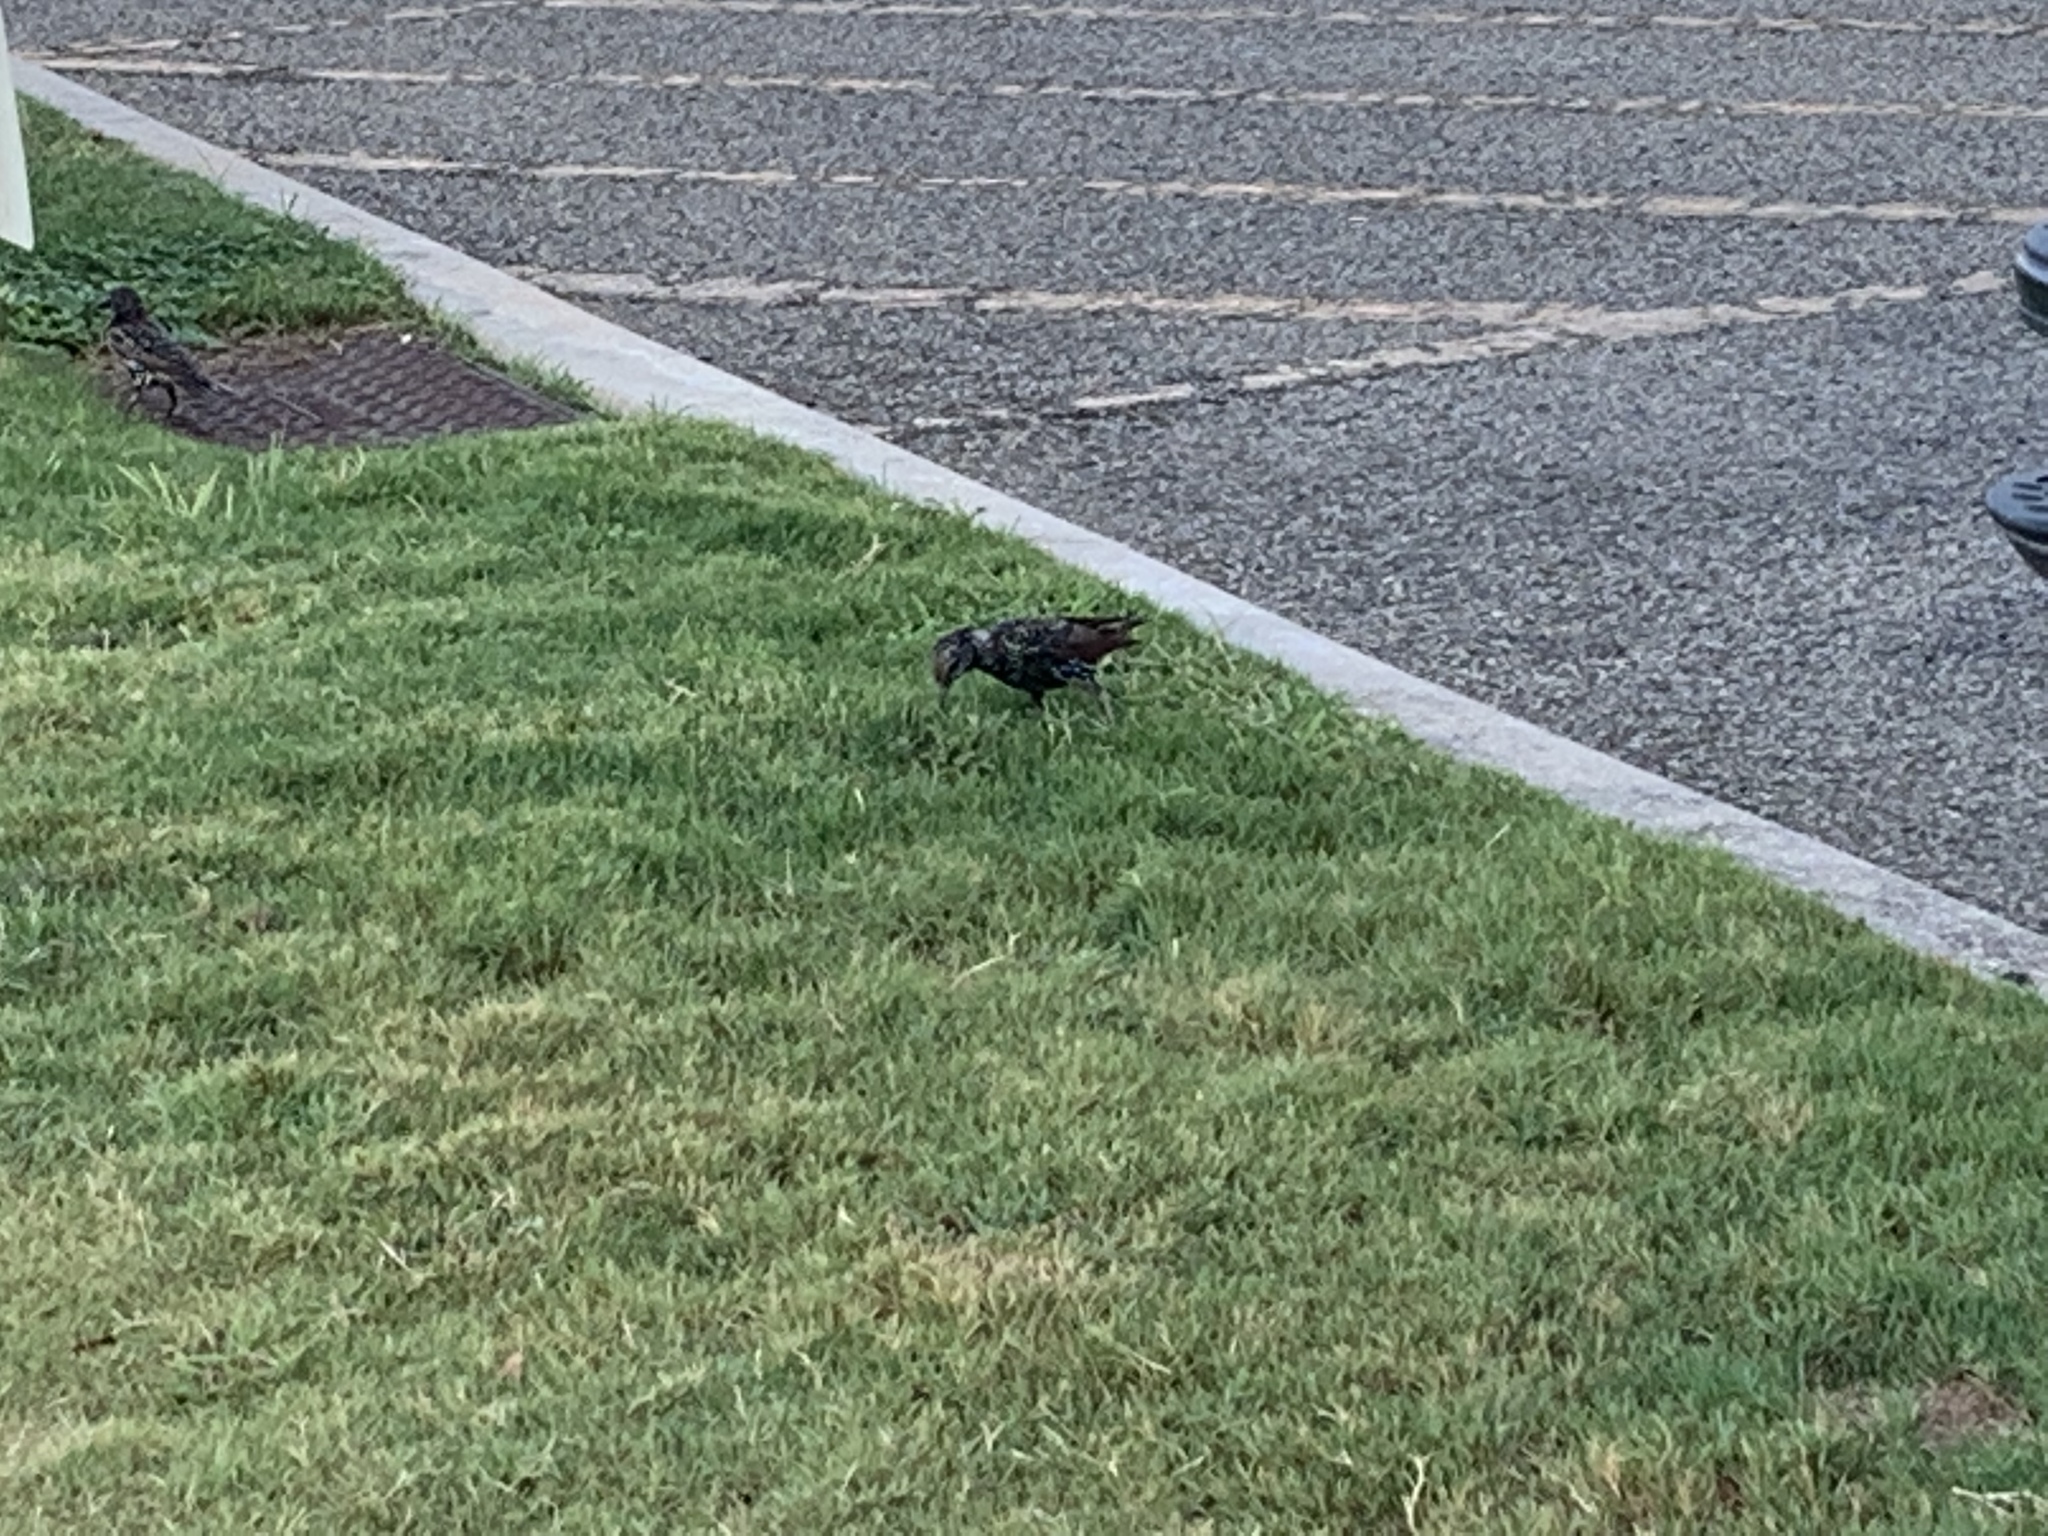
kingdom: Animalia
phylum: Chordata
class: Aves
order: Passeriformes
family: Sturnidae
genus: Sturnus
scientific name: Sturnus vulgaris
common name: Common starling
